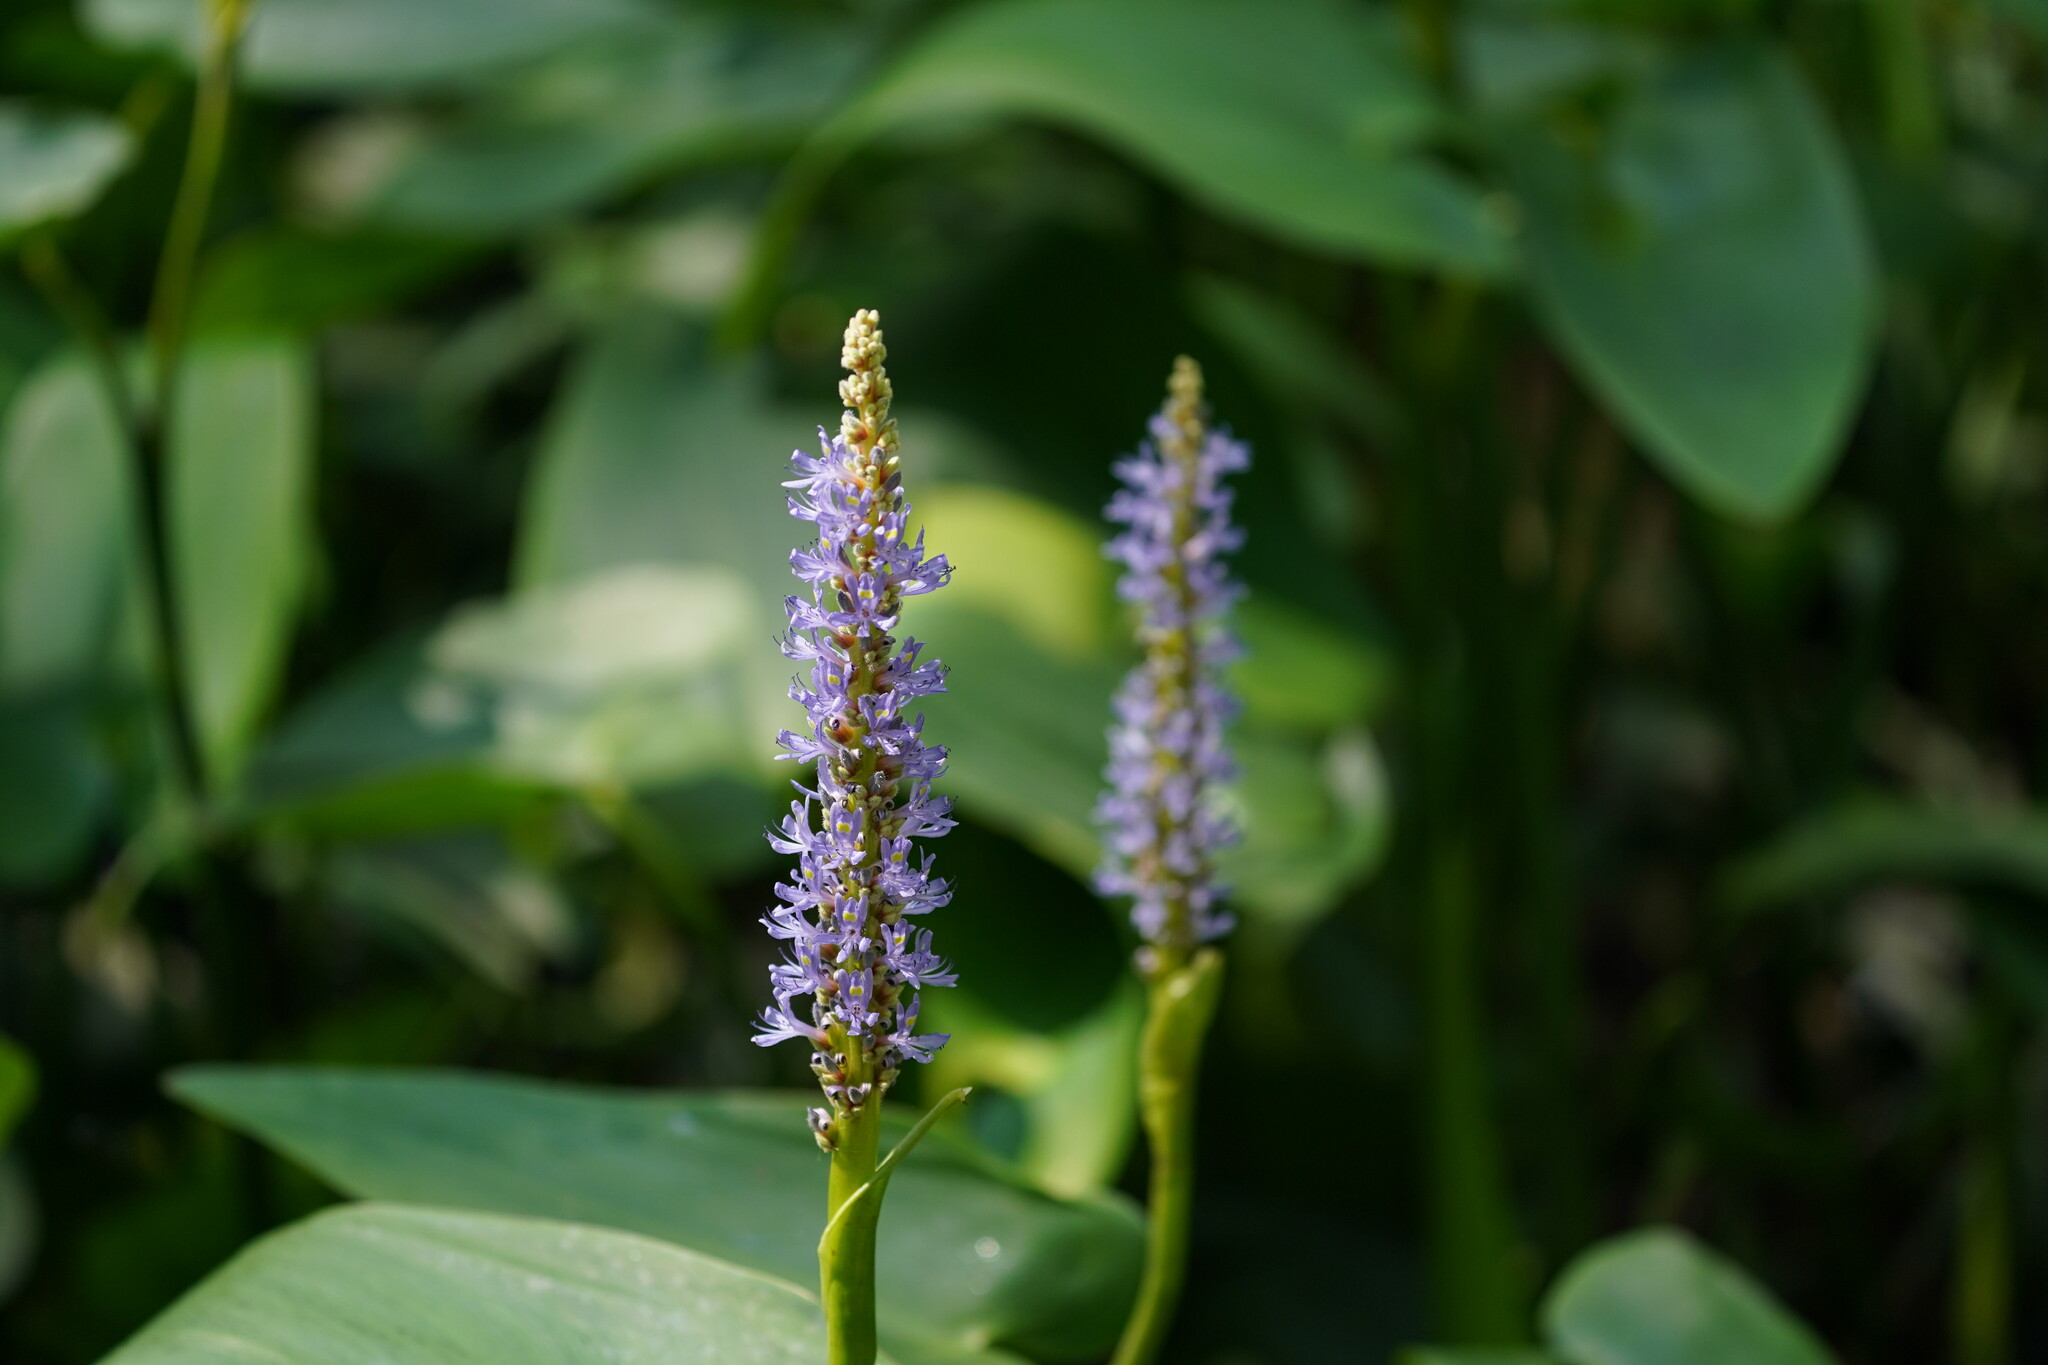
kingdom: Plantae
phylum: Tracheophyta
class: Liliopsida
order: Commelinales
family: Pontederiaceae
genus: Pontederia
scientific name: Pontederia cordata
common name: Pickerelweed
